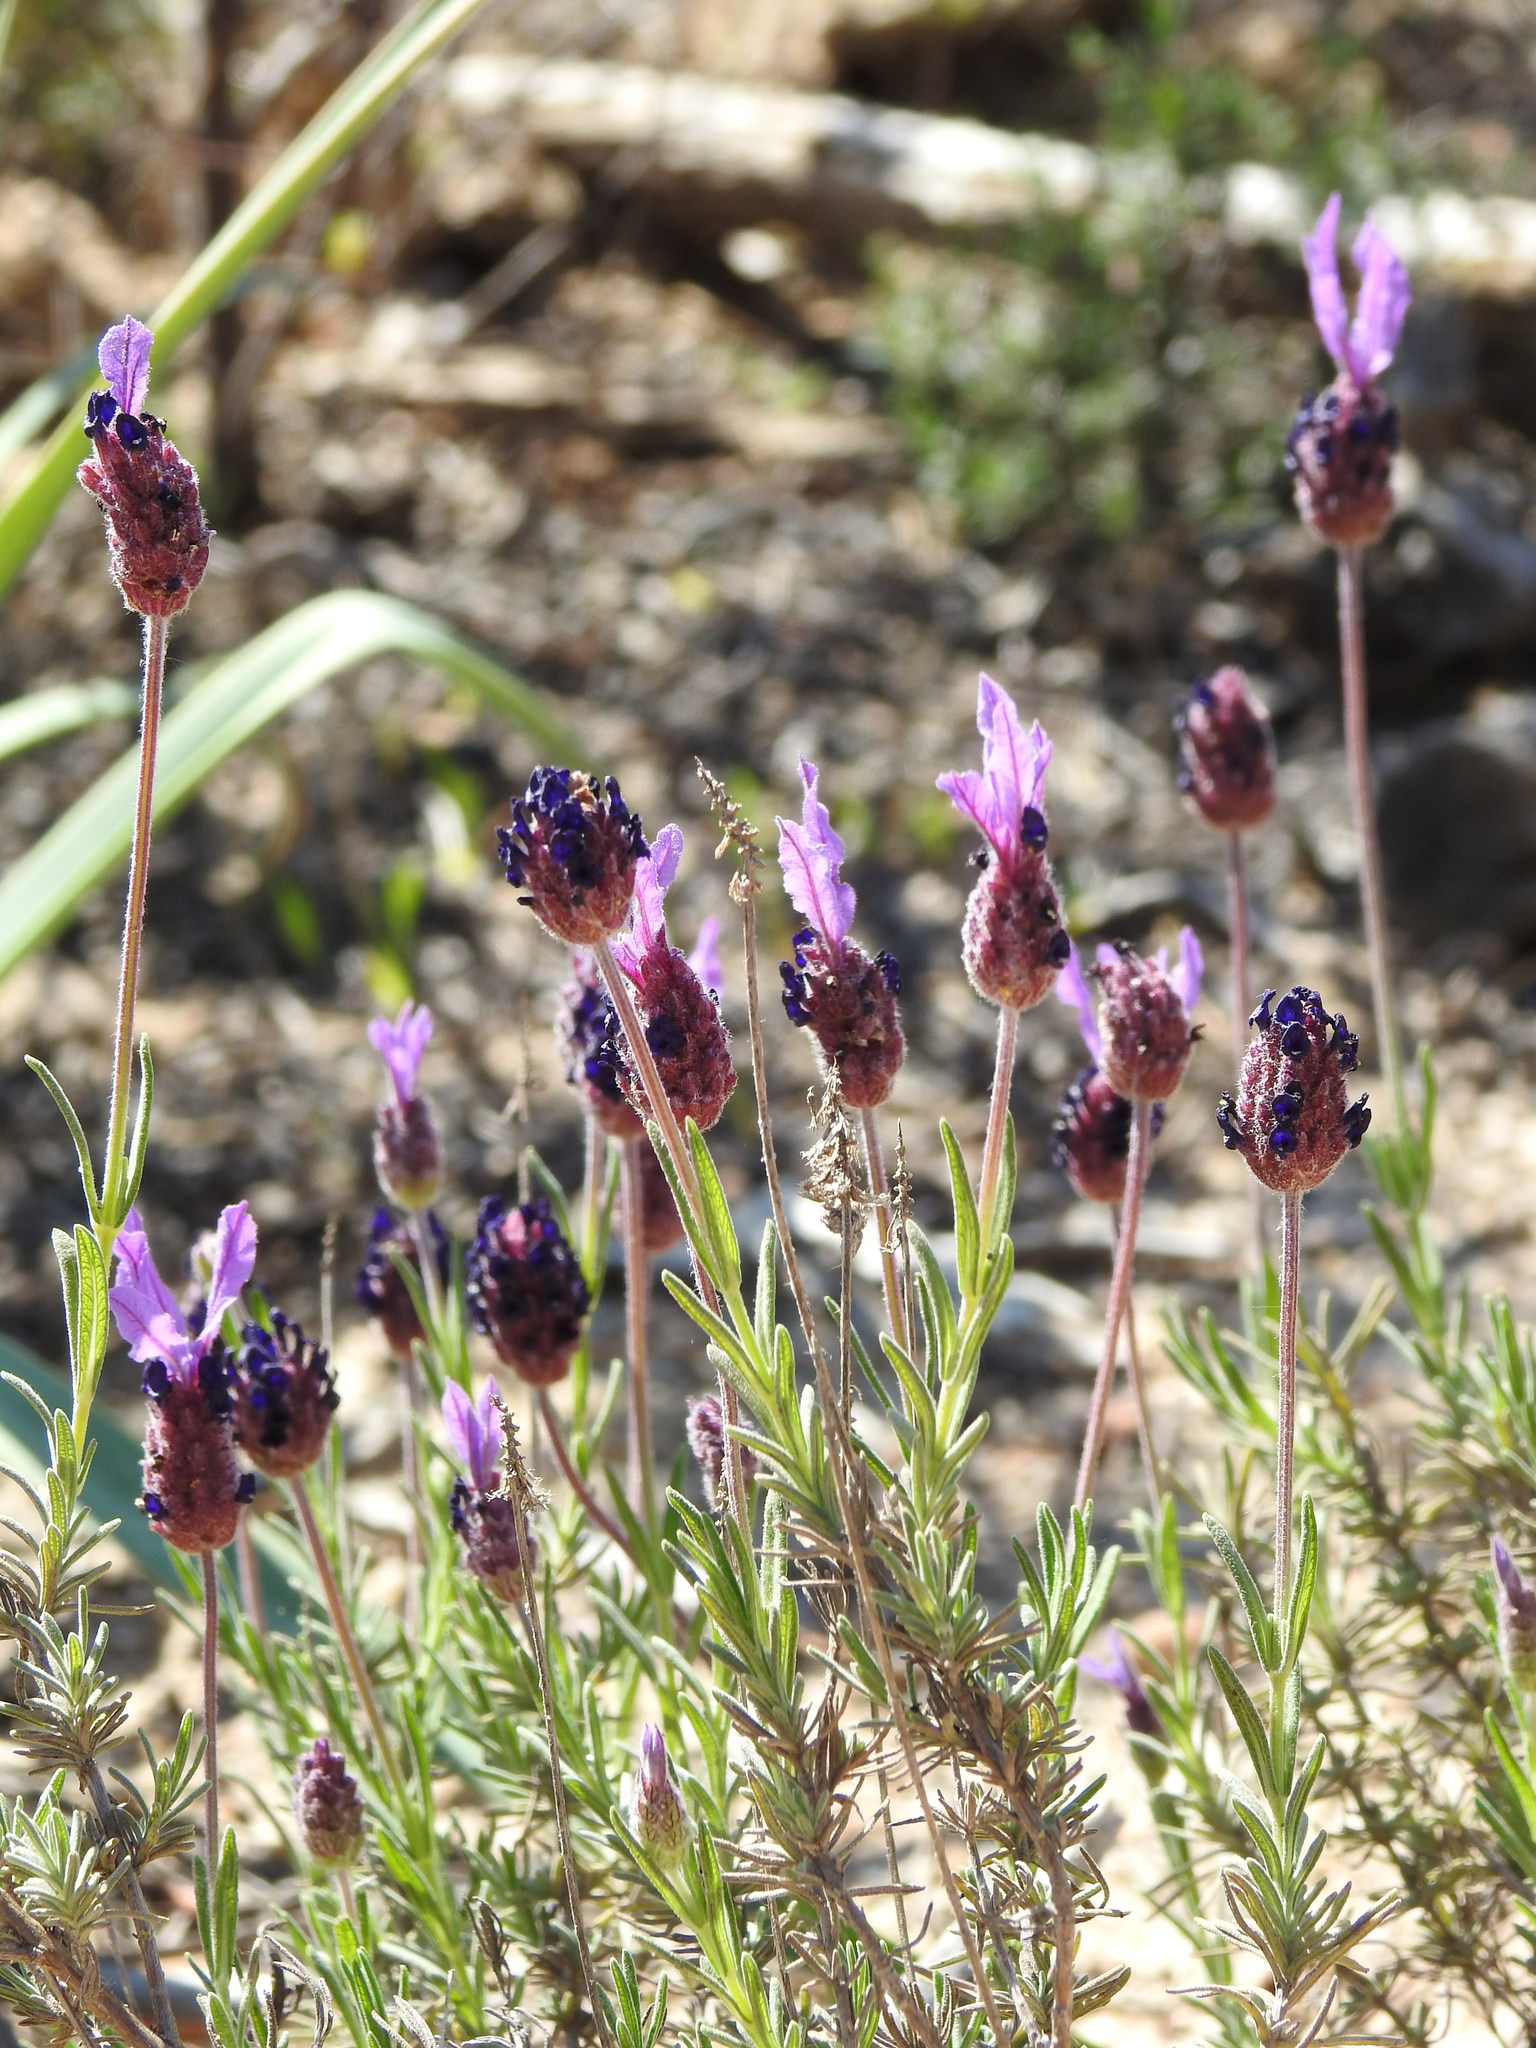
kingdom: Plantae
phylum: Tracheophyta
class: Magnoliopsida
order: Lamiales
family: Lamiaceae
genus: Lavandula
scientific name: Lavandula pedunculata
